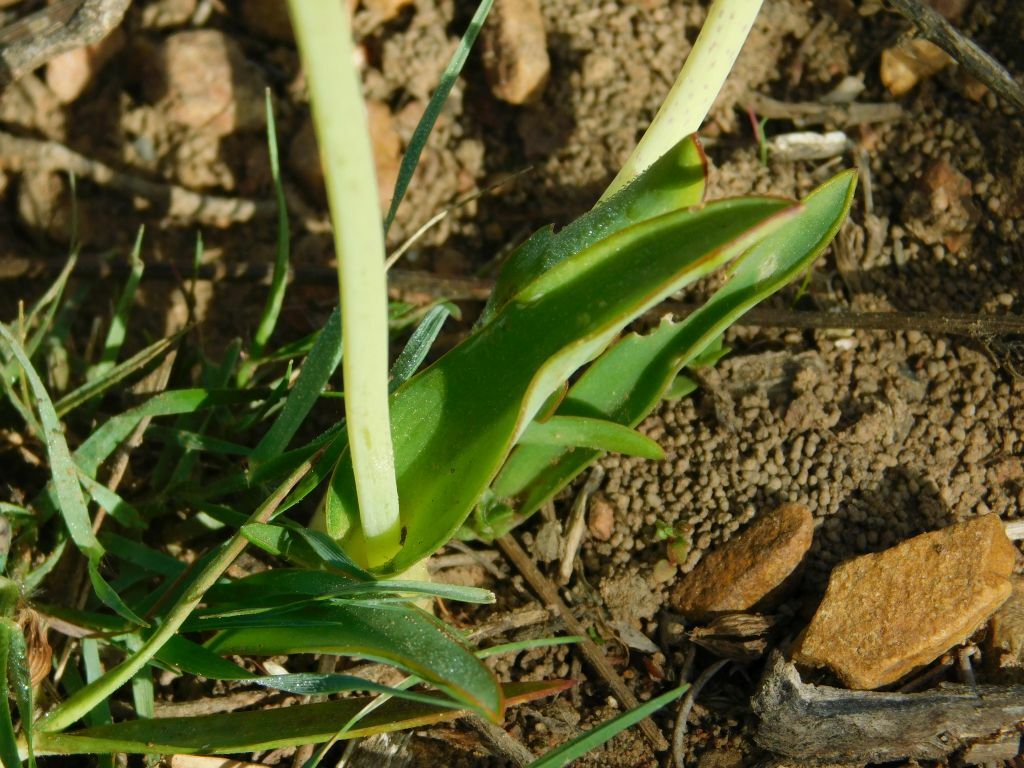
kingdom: Plantae
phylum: Tracheophyta
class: Liliopsida
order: Asparagales
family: Asparagaceae
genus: Lachenalia
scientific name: Lachenalia lutea
